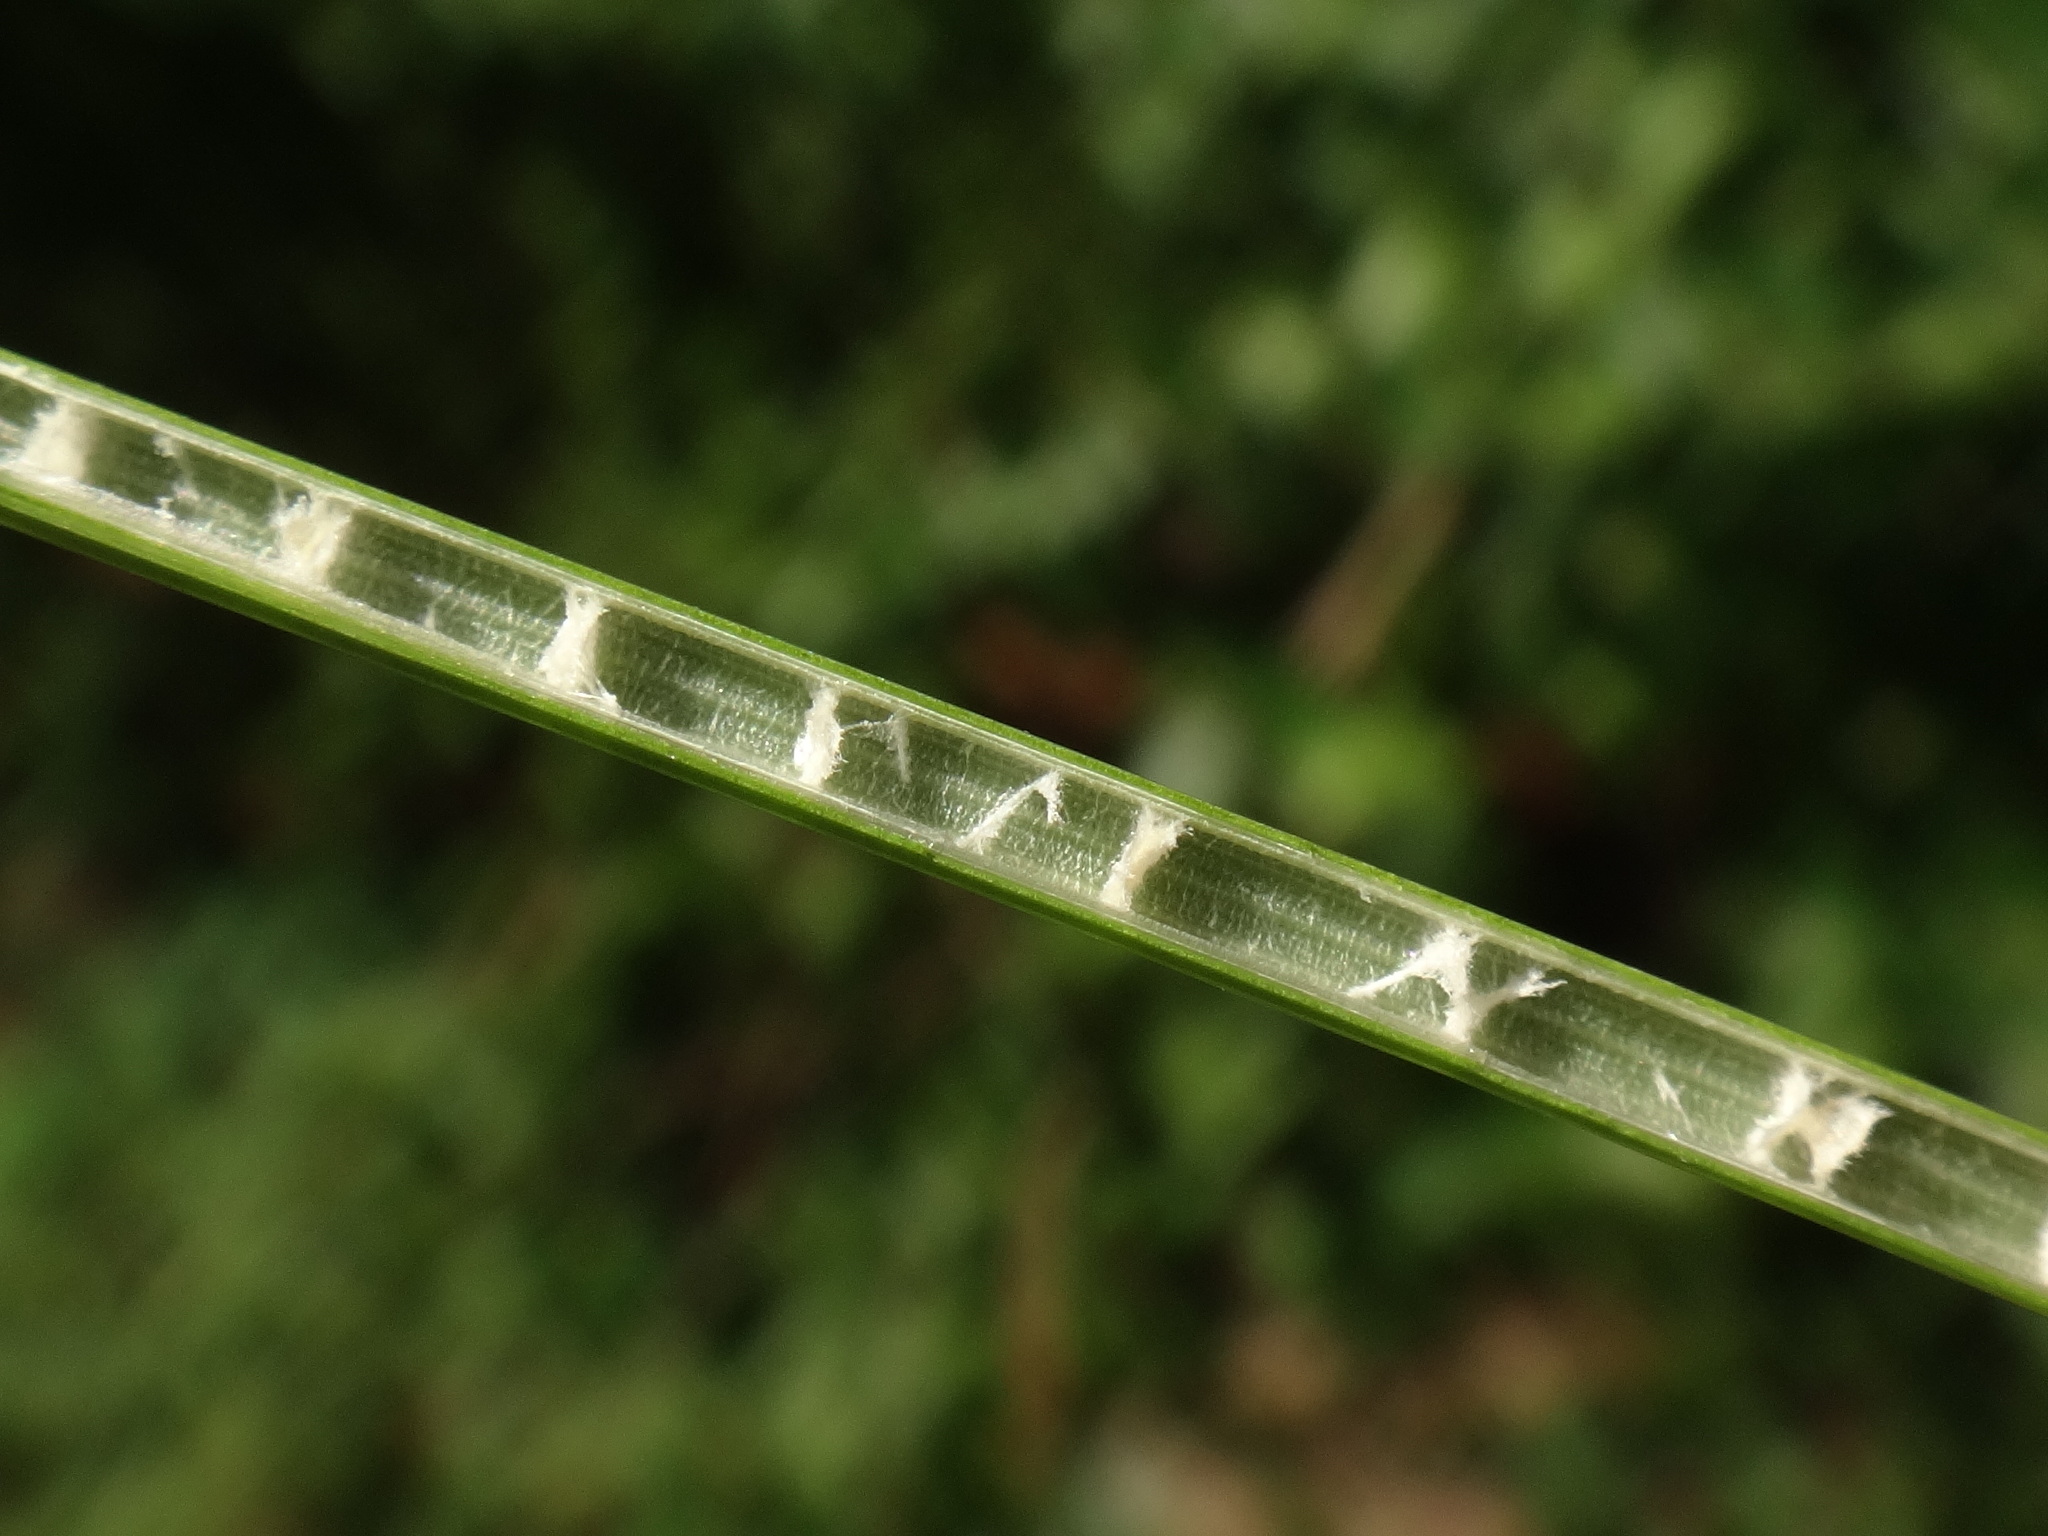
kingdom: Plantae
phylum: Tracheophyta
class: Liliopsida
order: Poales
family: Juncaceae
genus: Juncus
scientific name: Juncus inflexus
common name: Hard rush
